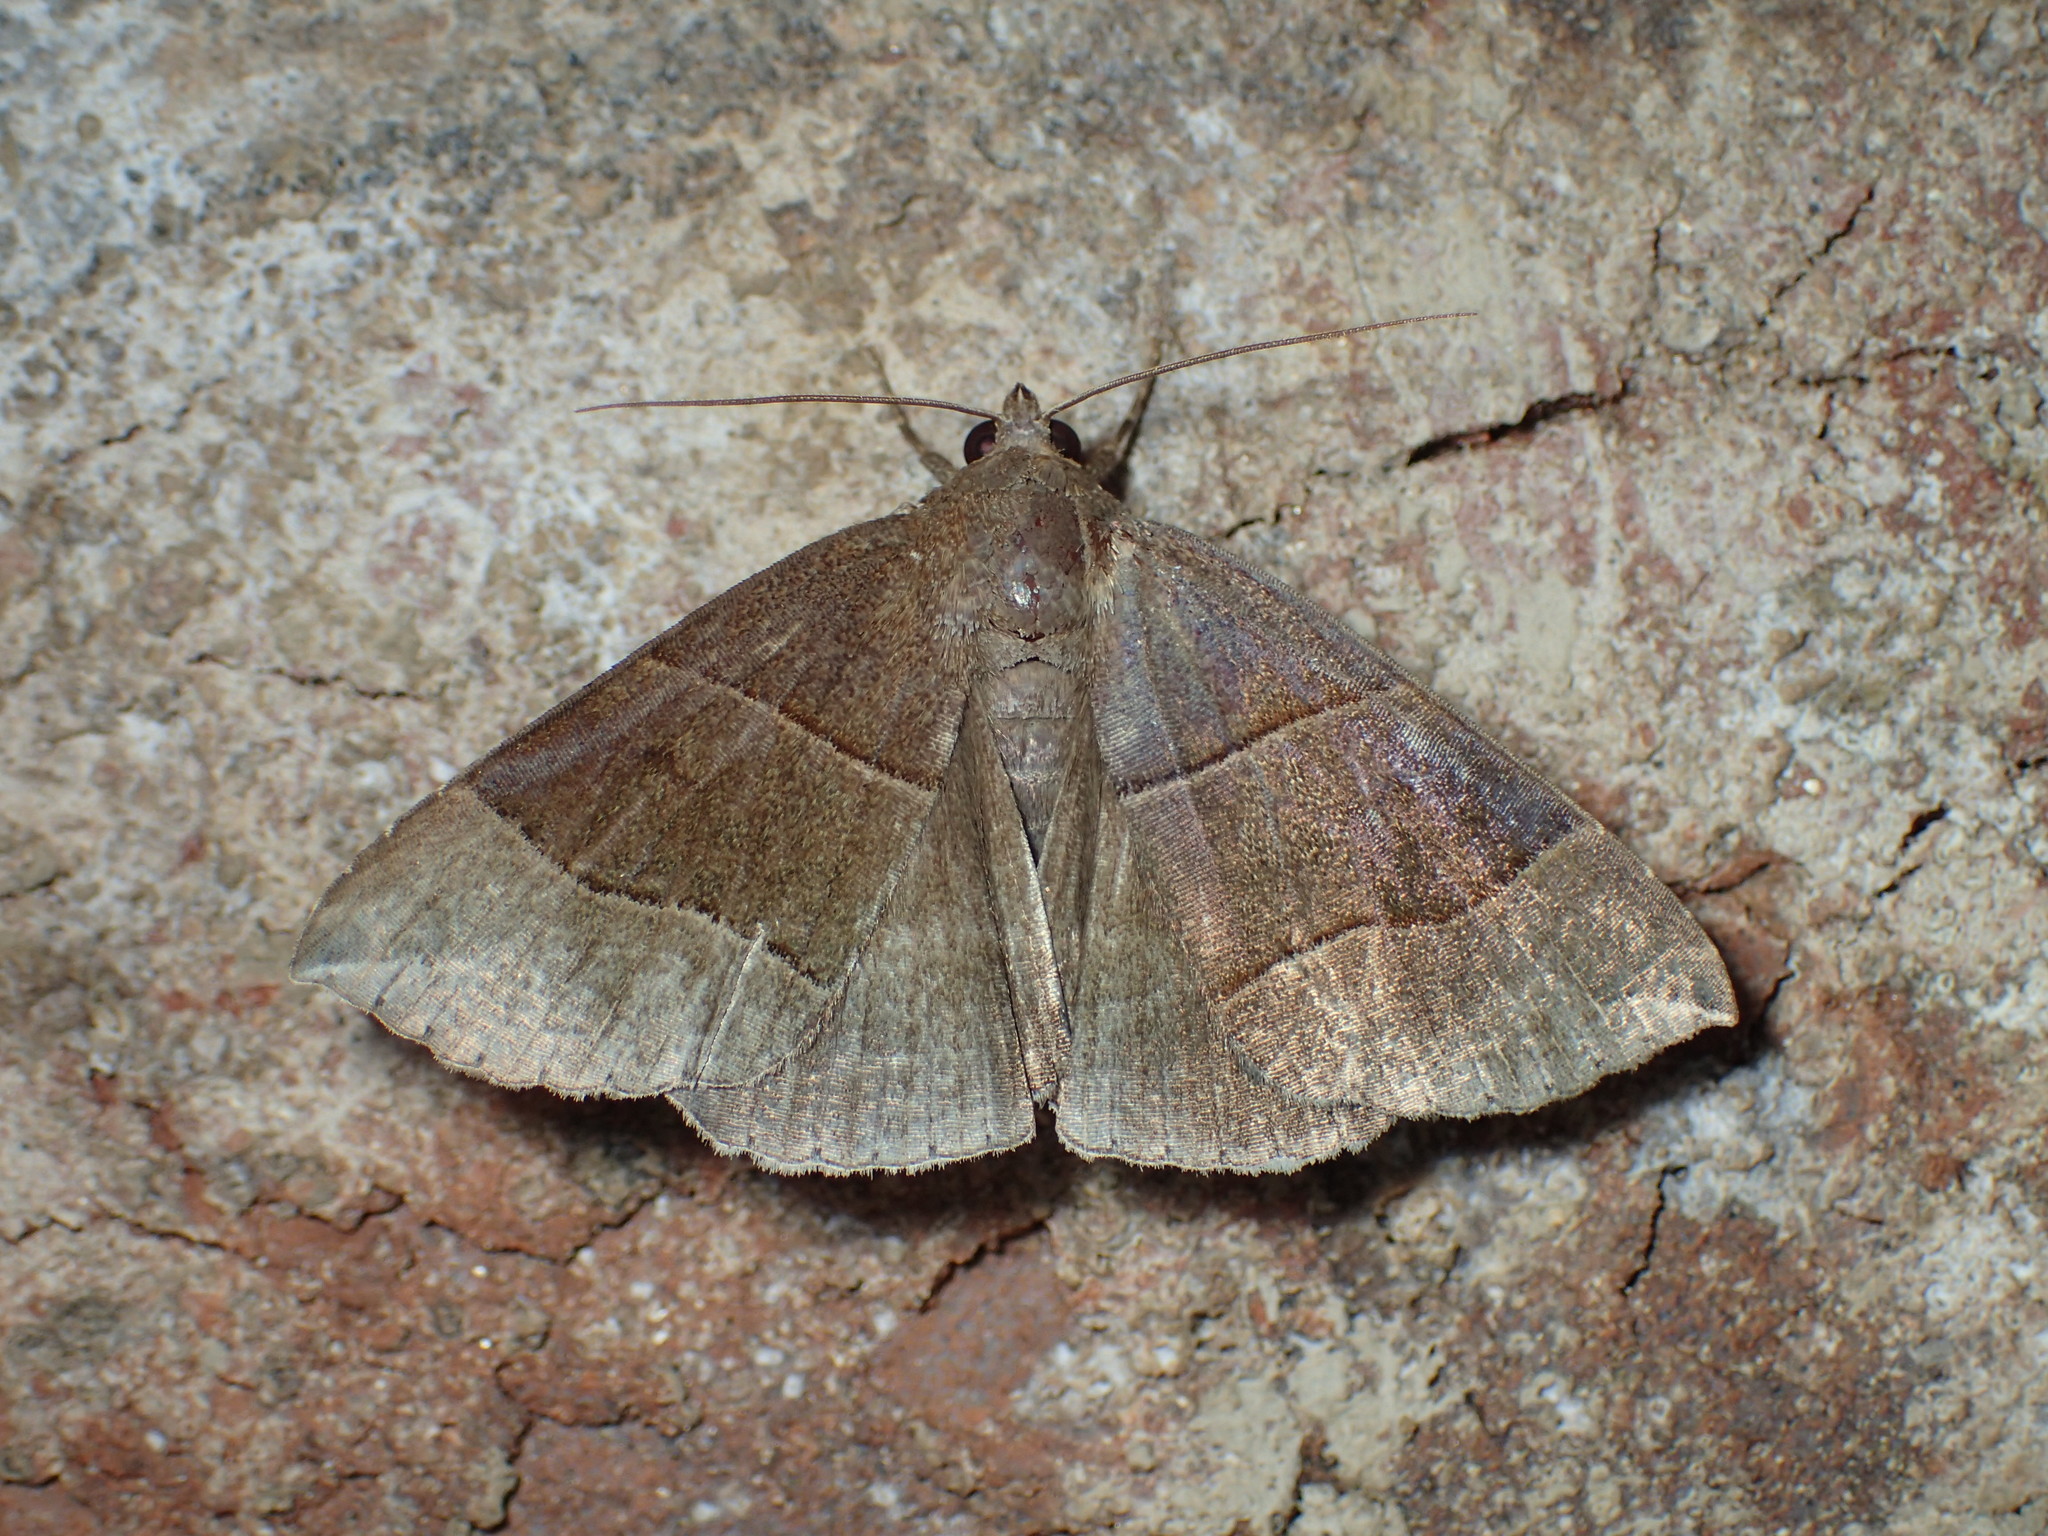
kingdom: Animalia
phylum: Arthropoda
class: Insecta
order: Lepidoptera
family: Erebidae
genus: Parallelia
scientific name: Parallelia bistriaris
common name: Maple looper moth
